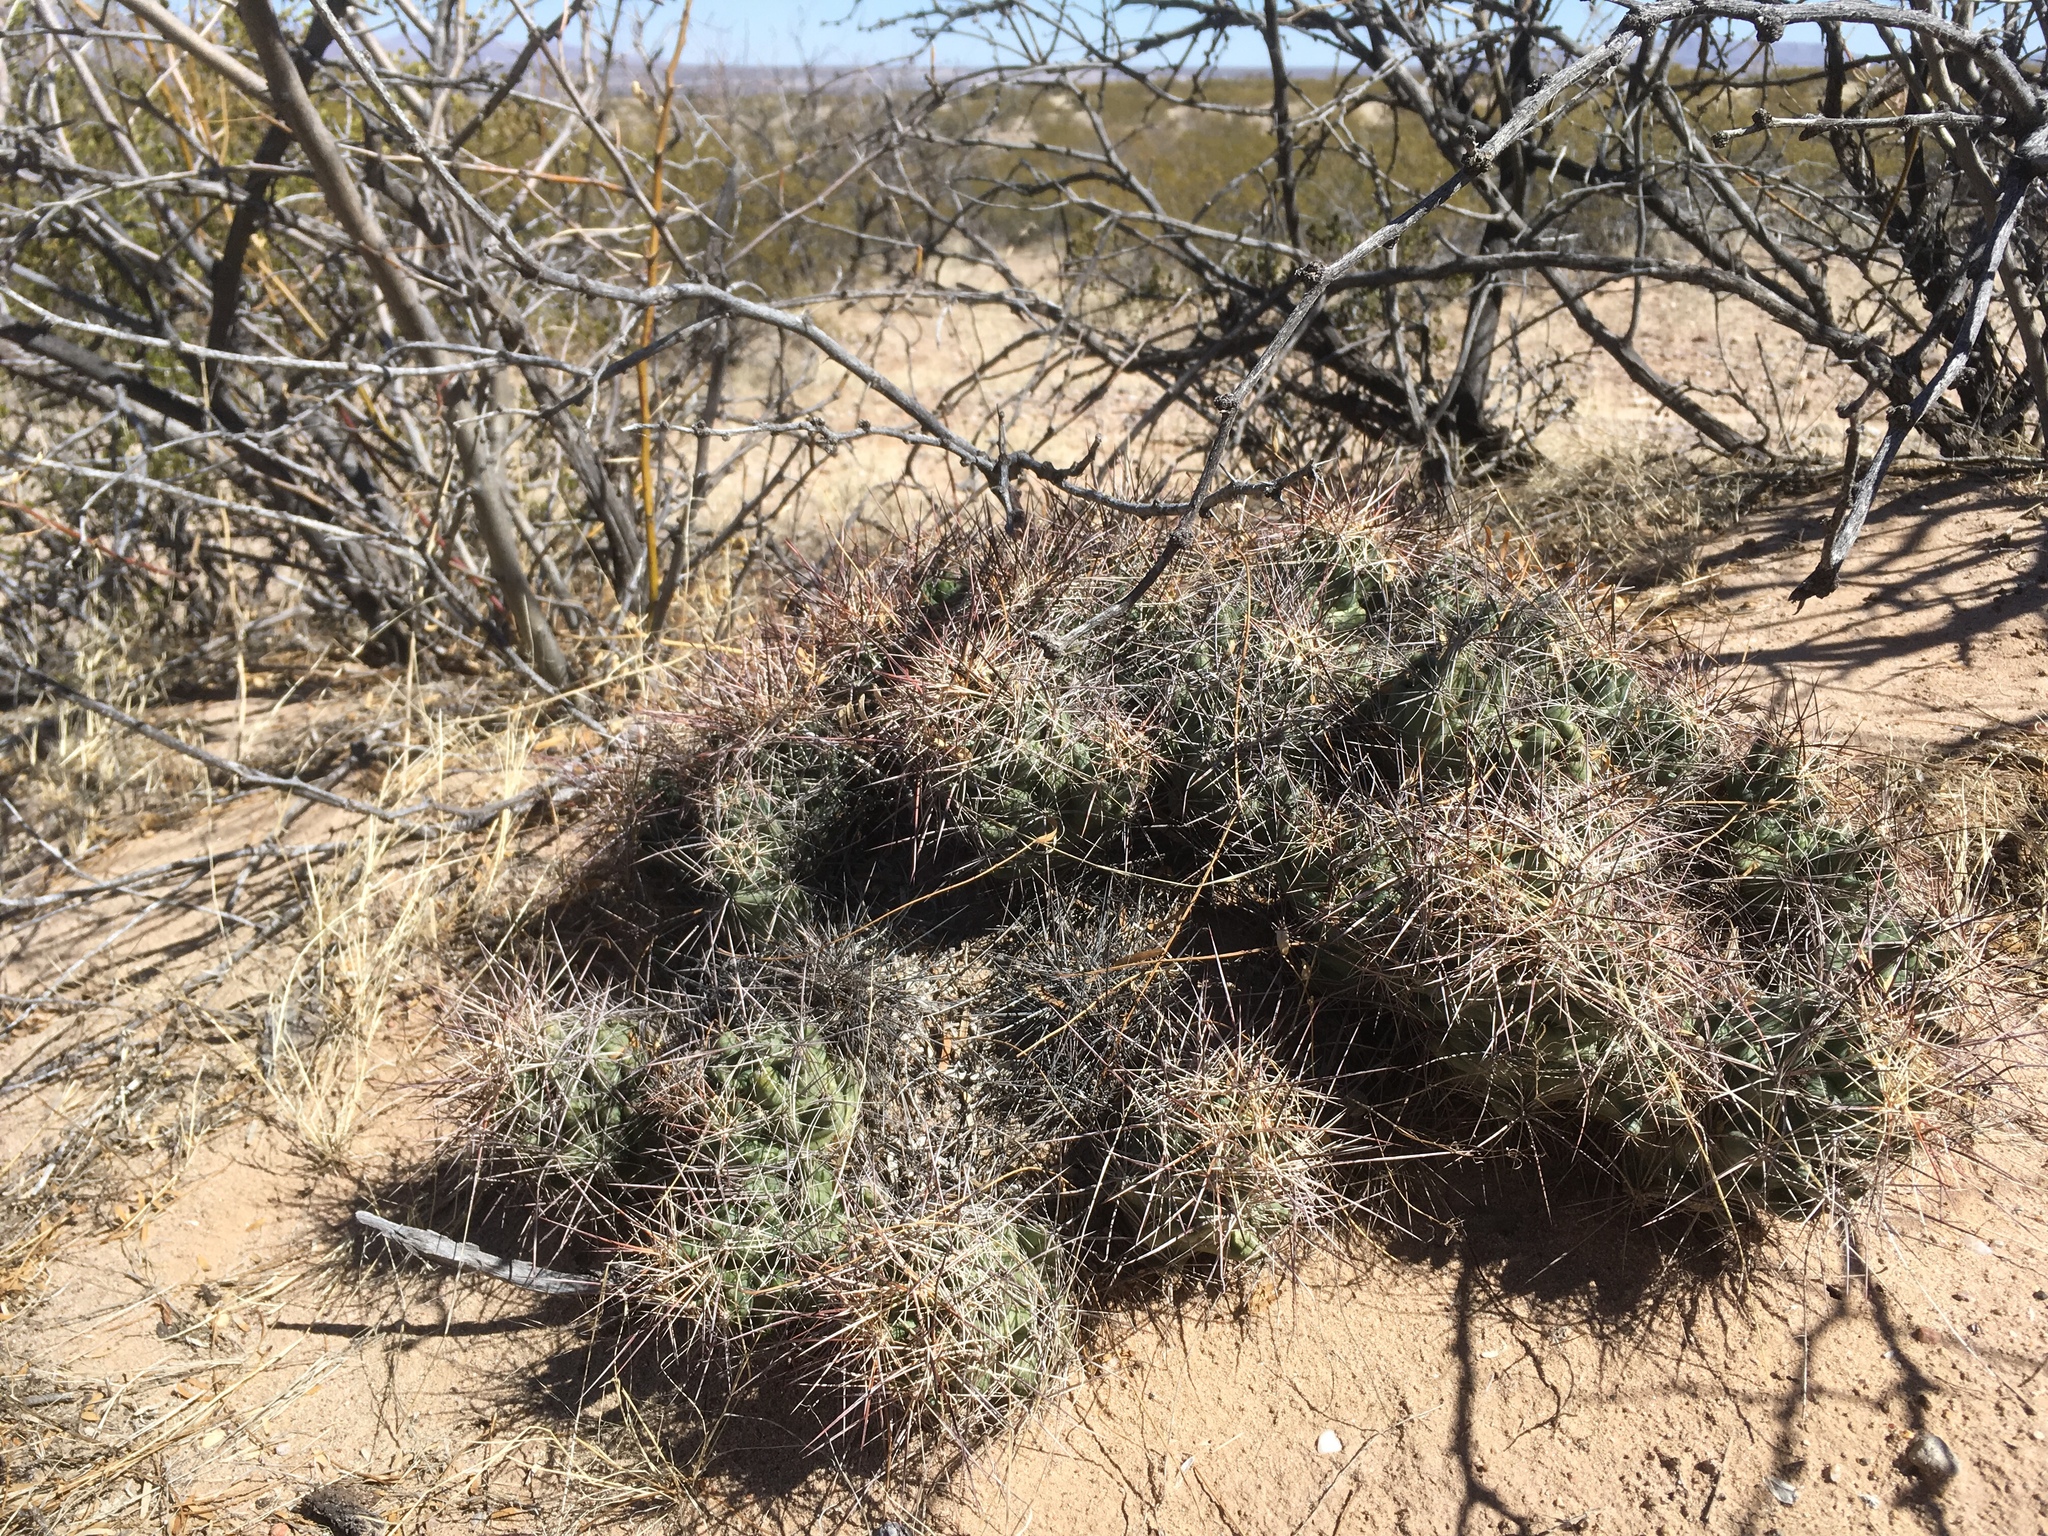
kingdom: Plantae
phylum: Tracheophyta
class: Magnoliopsida
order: Caryophyllales
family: Cactaceae
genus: Coryphantha
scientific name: Coryphantha macromeris
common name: Nipple beehive cactus
